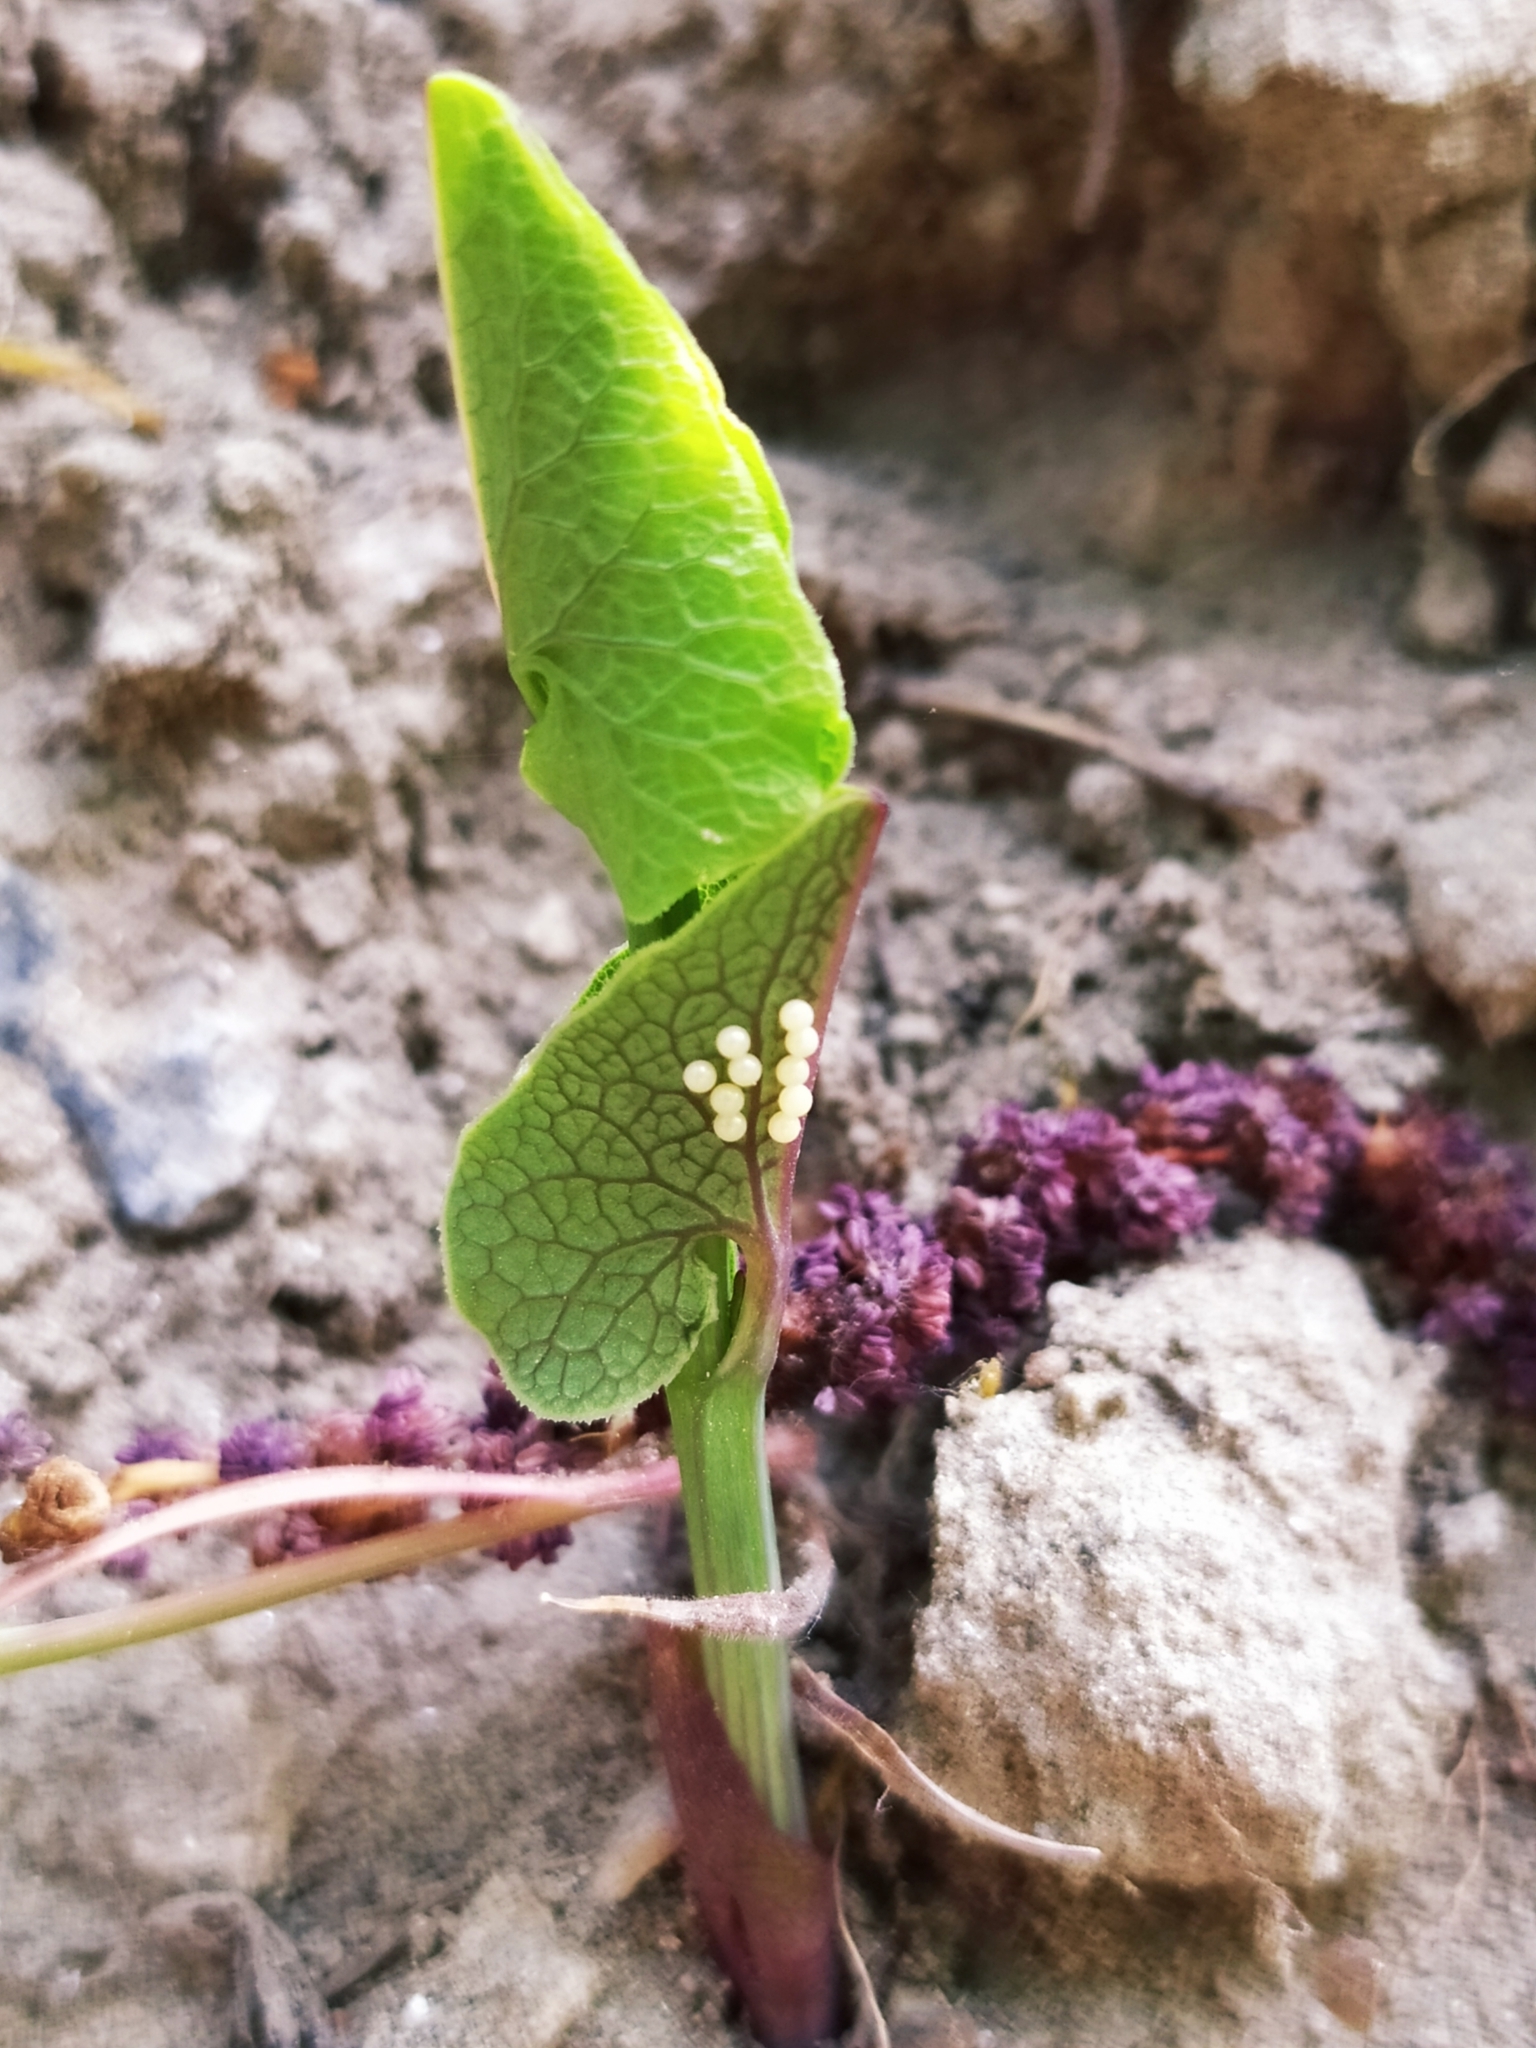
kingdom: Plantae
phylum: Tracheophyta
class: Magnoliopsida
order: Piperales
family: Aristolochiaceae
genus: Aristolochia
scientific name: Aristolochia clematitis
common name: Birthwort
